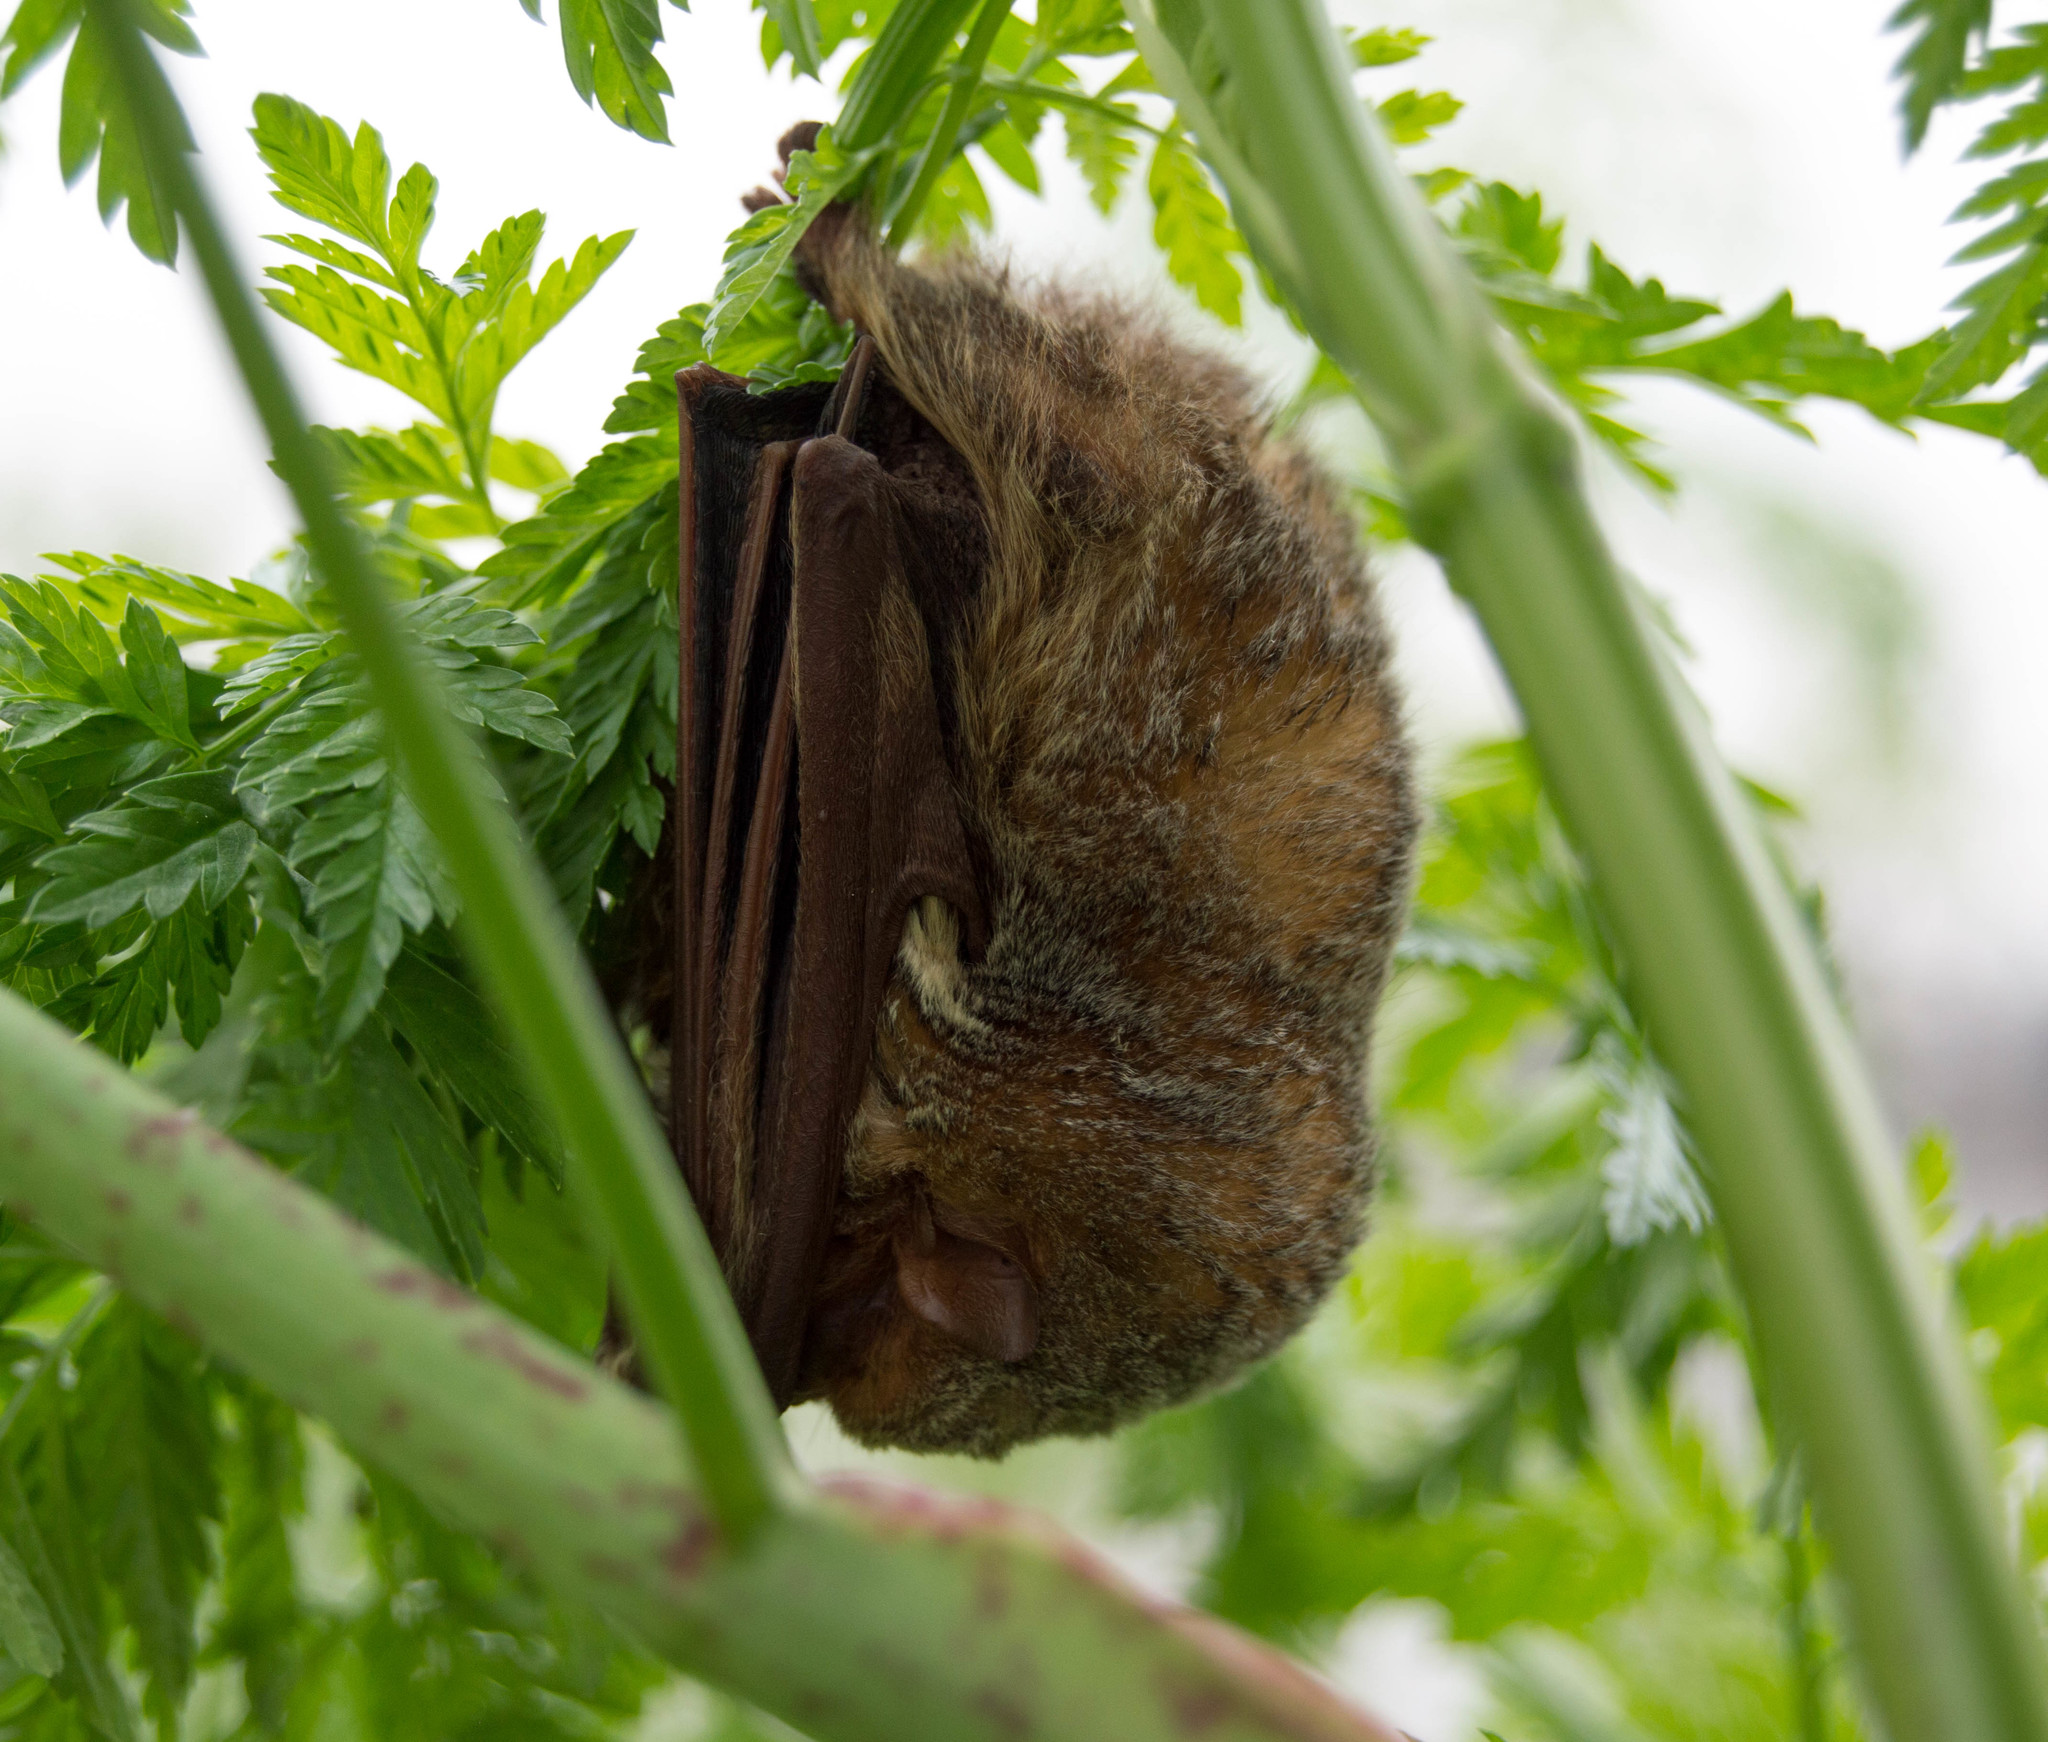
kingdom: Animalia
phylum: Chordata
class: Mammalia
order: Chiroptera
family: Vespertilionidae
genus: Lasiurus
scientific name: Lasiurus blossevillii
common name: Southern red bat
